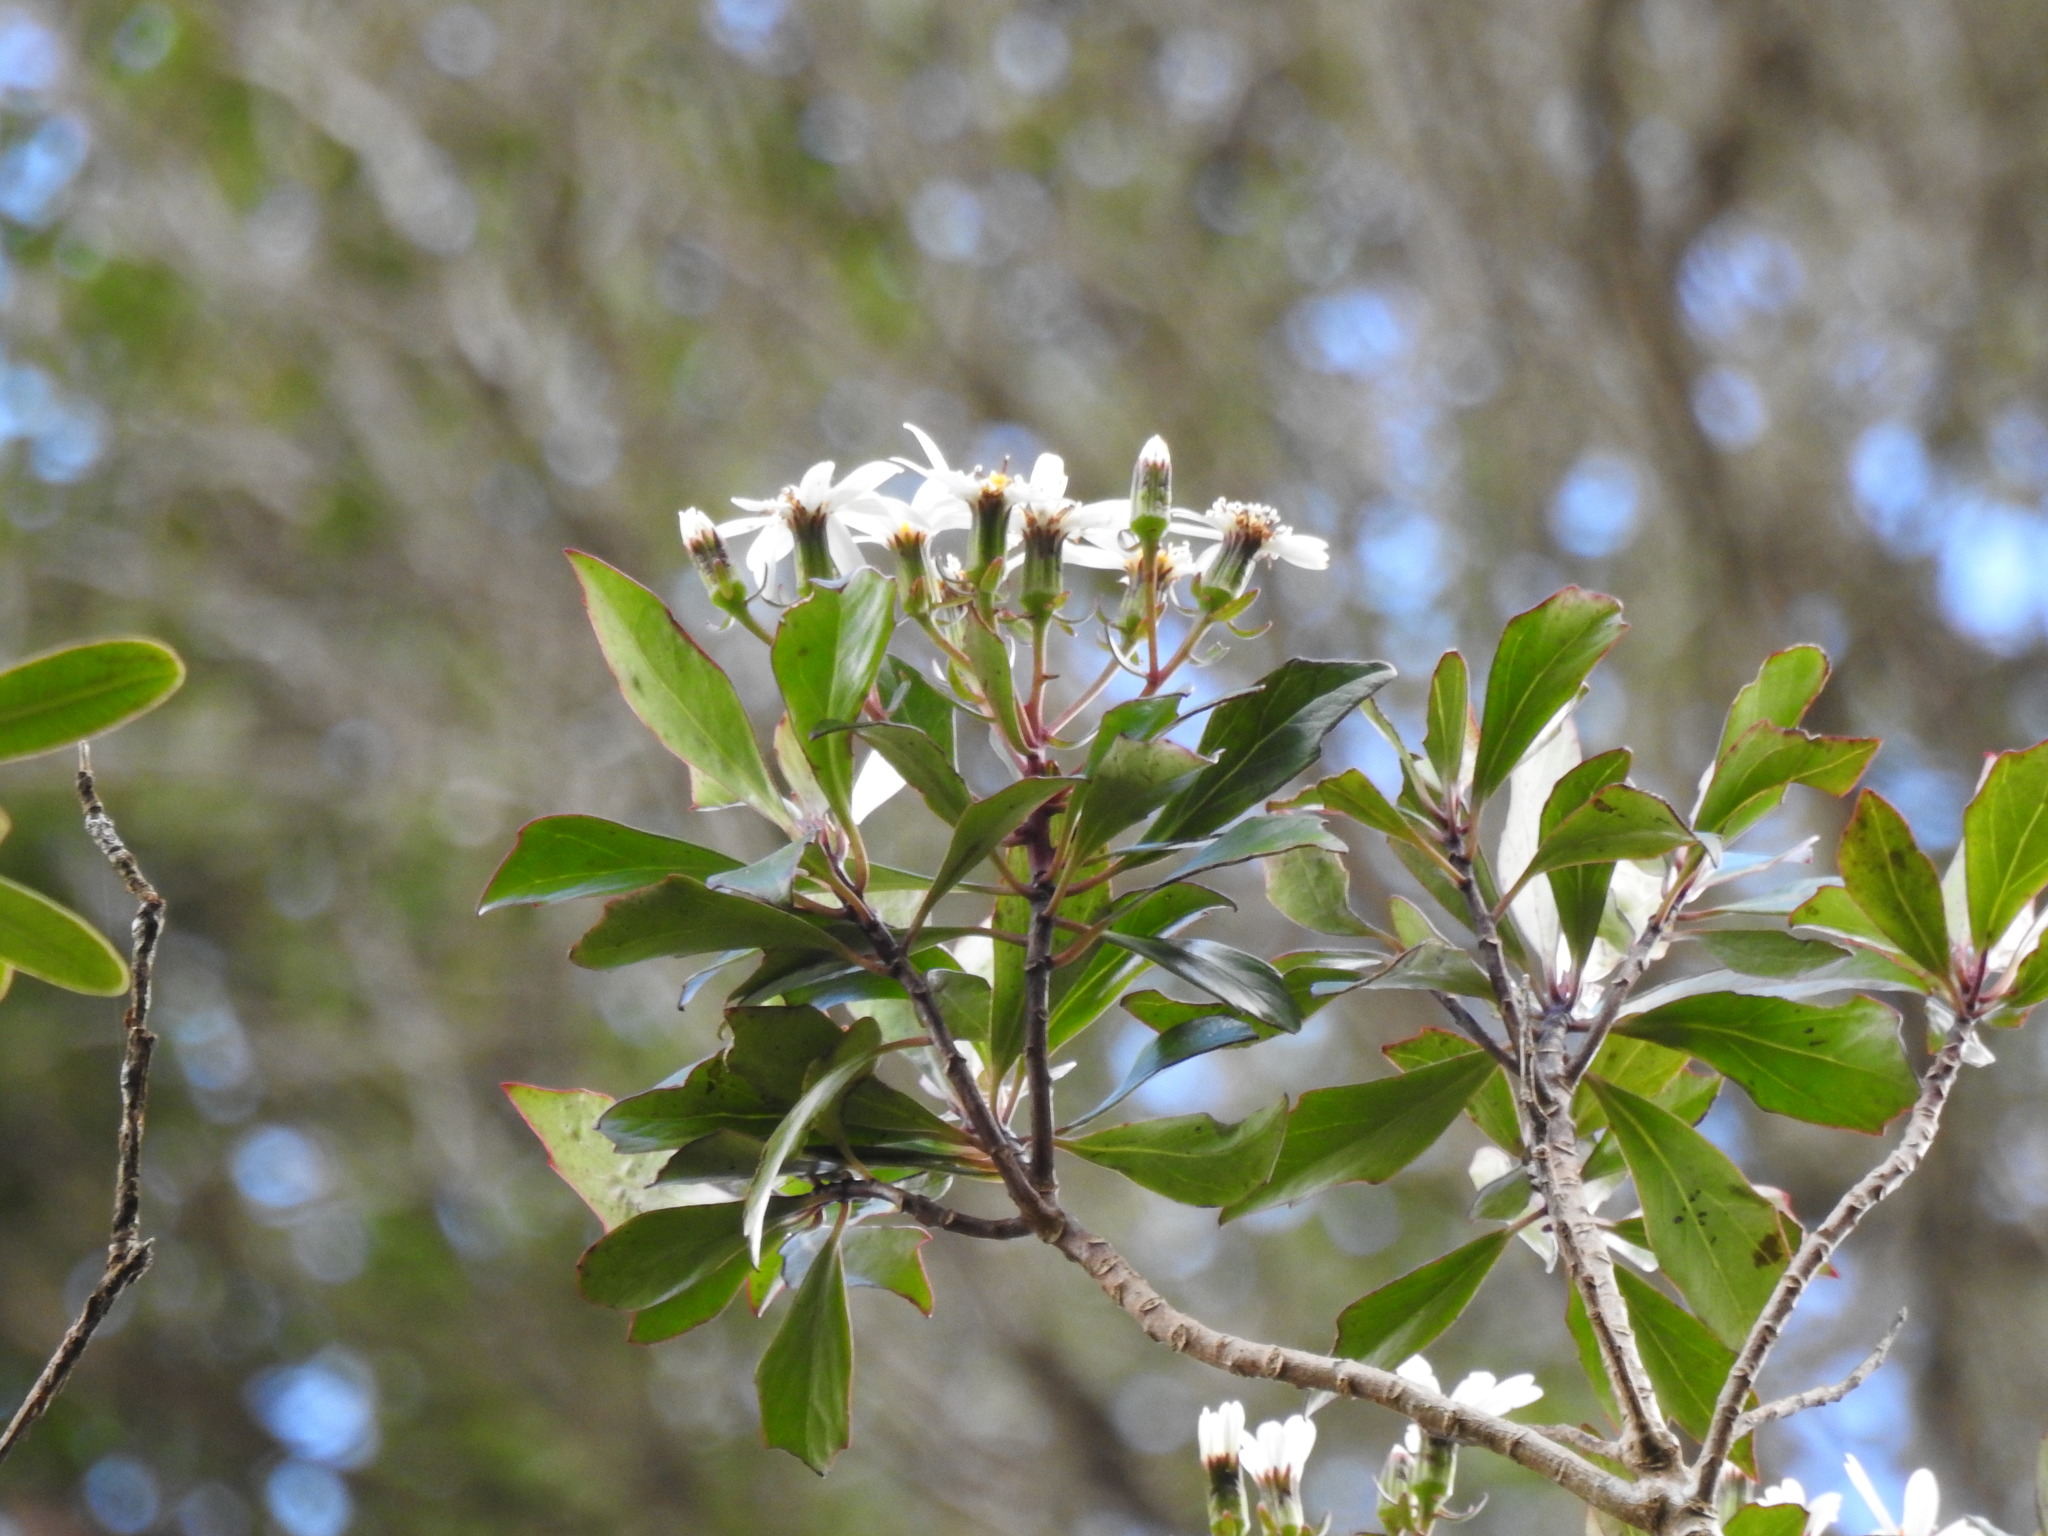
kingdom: Plantae
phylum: Tracheophyta
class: Magnoliopsida
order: Asterales
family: Asteraceae
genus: Brachyglottis
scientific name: Brachyglottis kirkii
